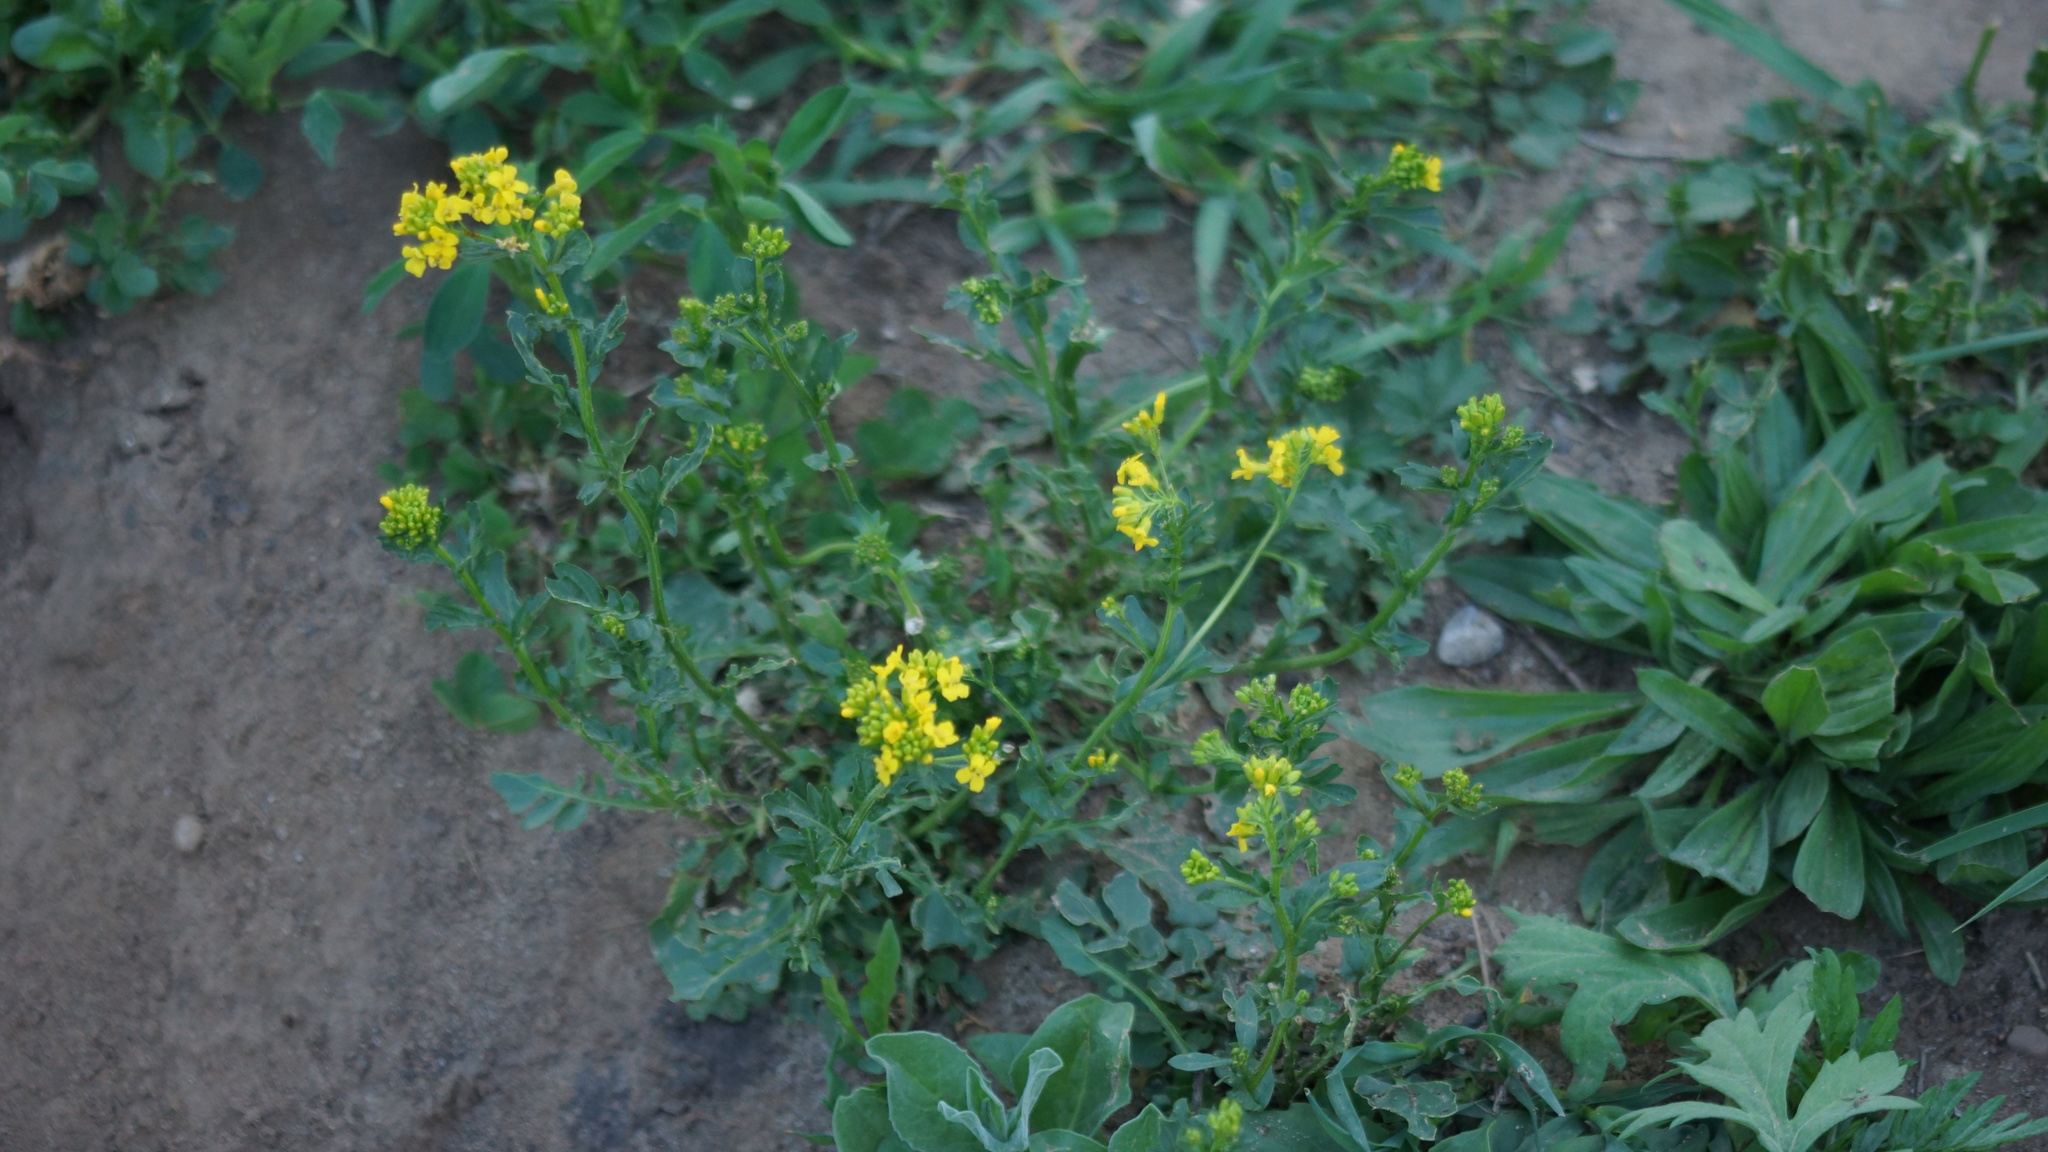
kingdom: Plantae
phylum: Tracheophyta
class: Magnoliopsida
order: Brassicales
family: Brassicaceae
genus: Barbarea
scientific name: Barbarea vulgaris
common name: Cressy-greens
